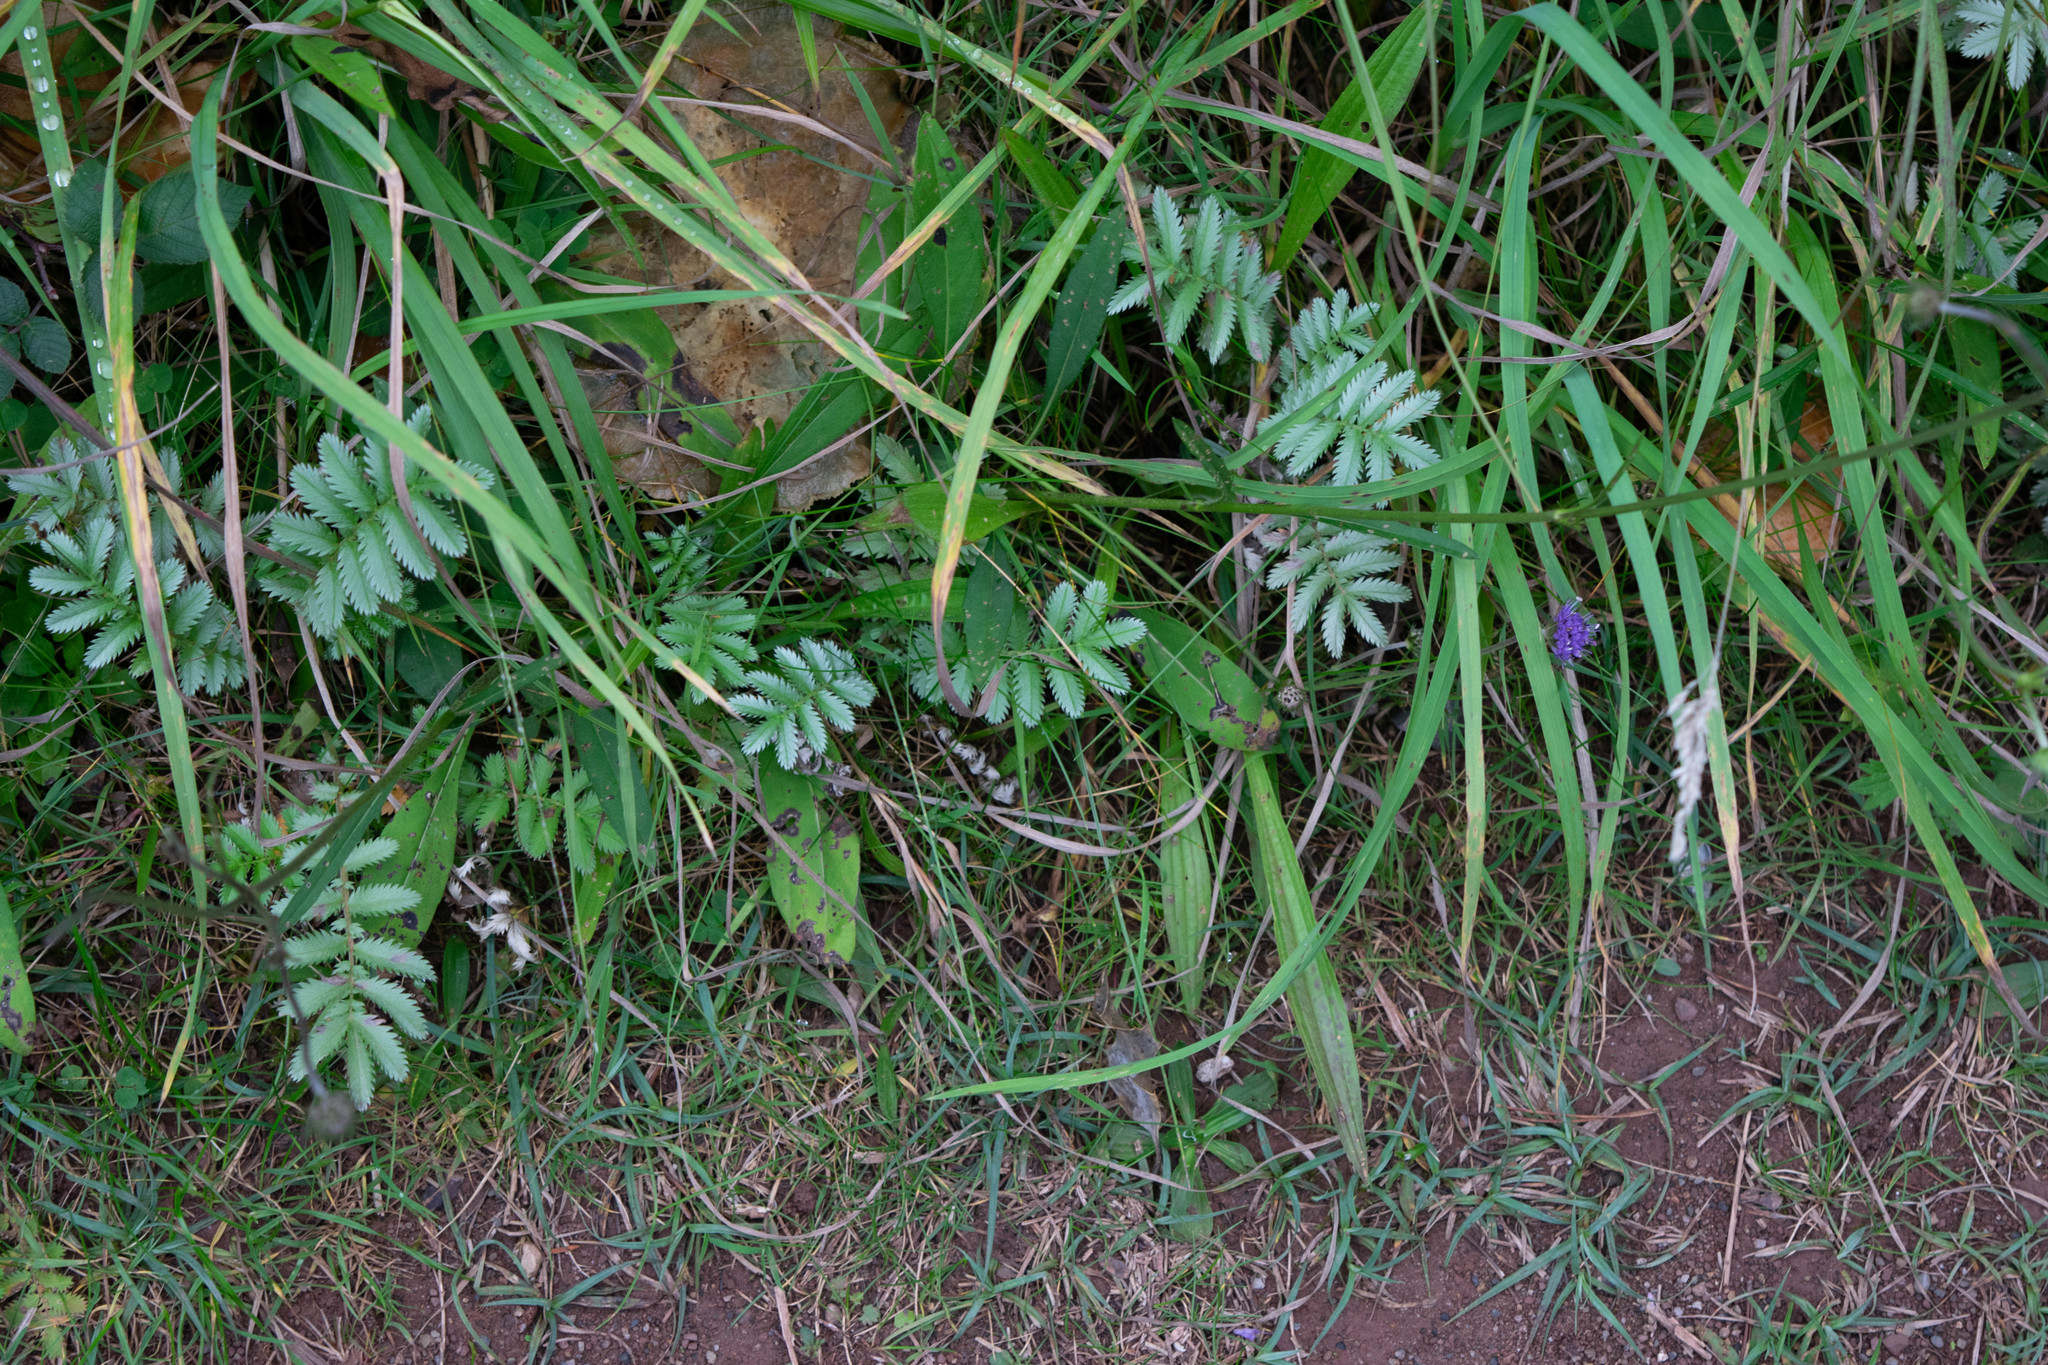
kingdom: Plantae
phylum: Tracheophyta
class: Magnoliopsida
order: Rosales
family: Rosaceae
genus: Argentina
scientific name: Argentina anserina
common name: Common silverweed
